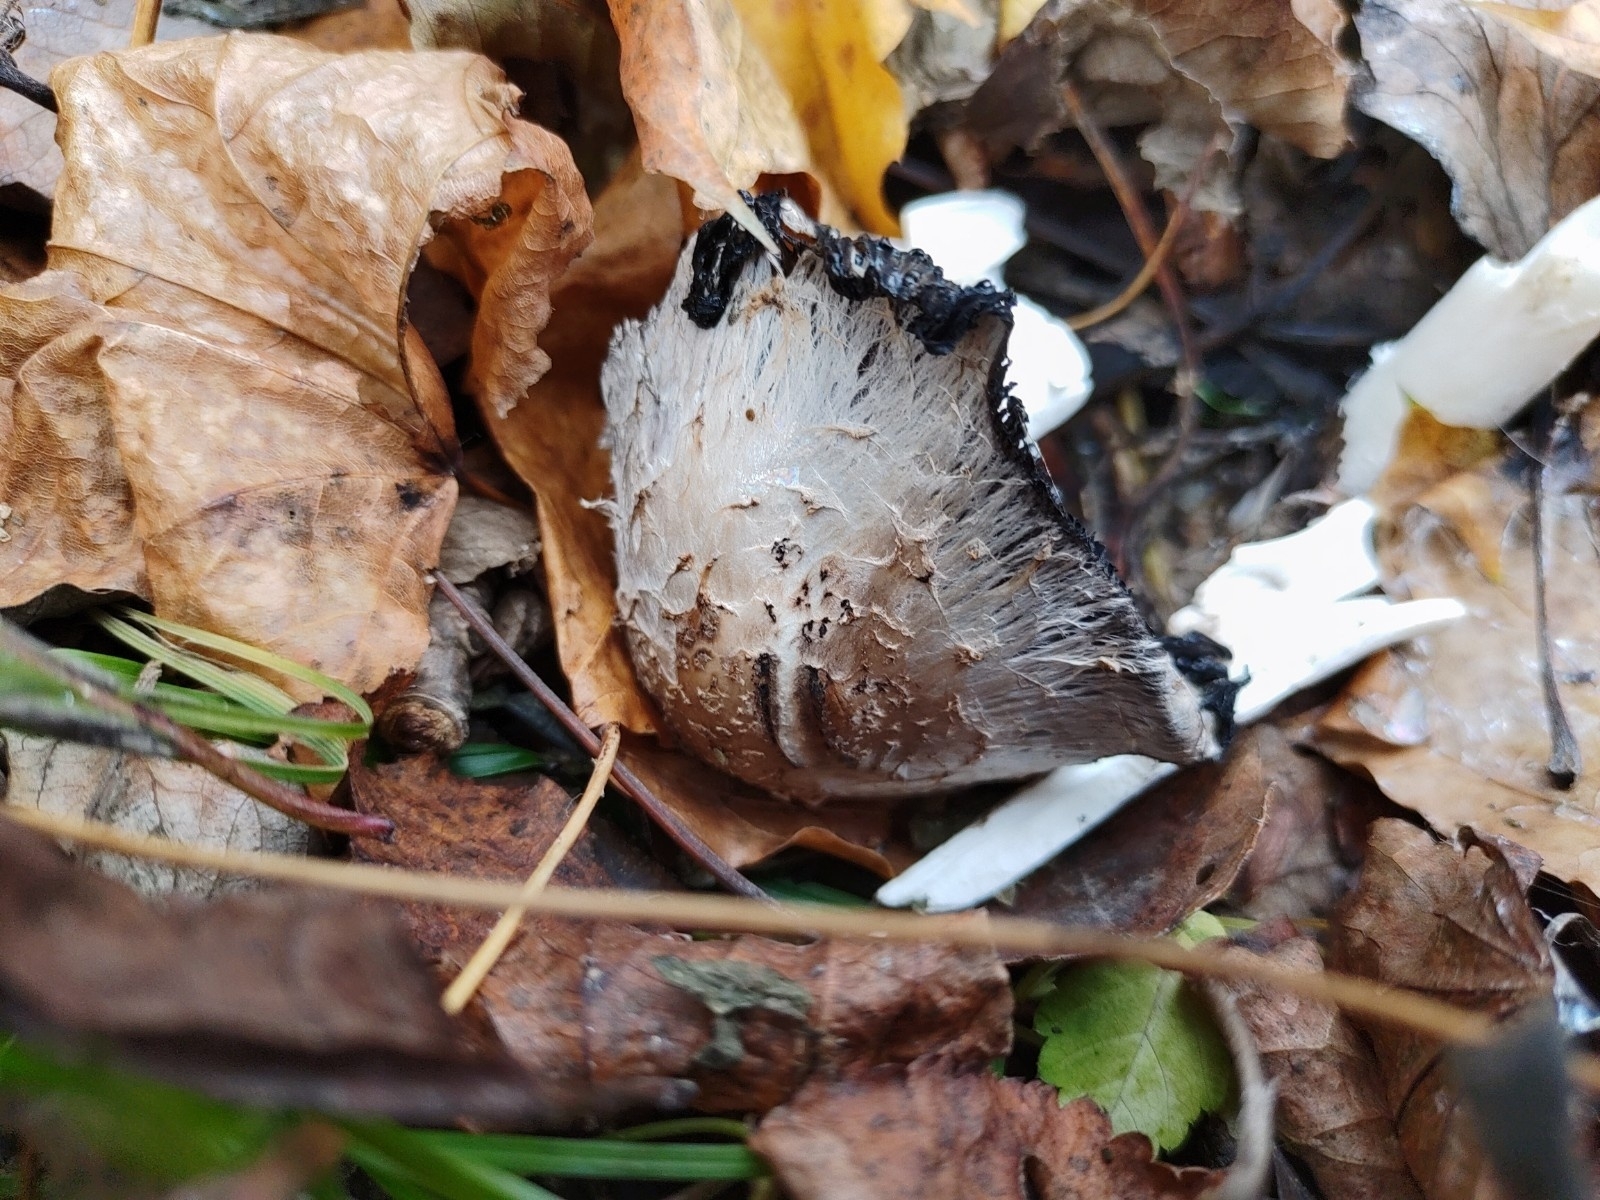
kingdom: Fungi
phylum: Basidiomycota
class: Agaricomycetes
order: Agaricales
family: Agaricaceae
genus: Coprinus
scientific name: Coprinus comatus
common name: Lawyer's wig
